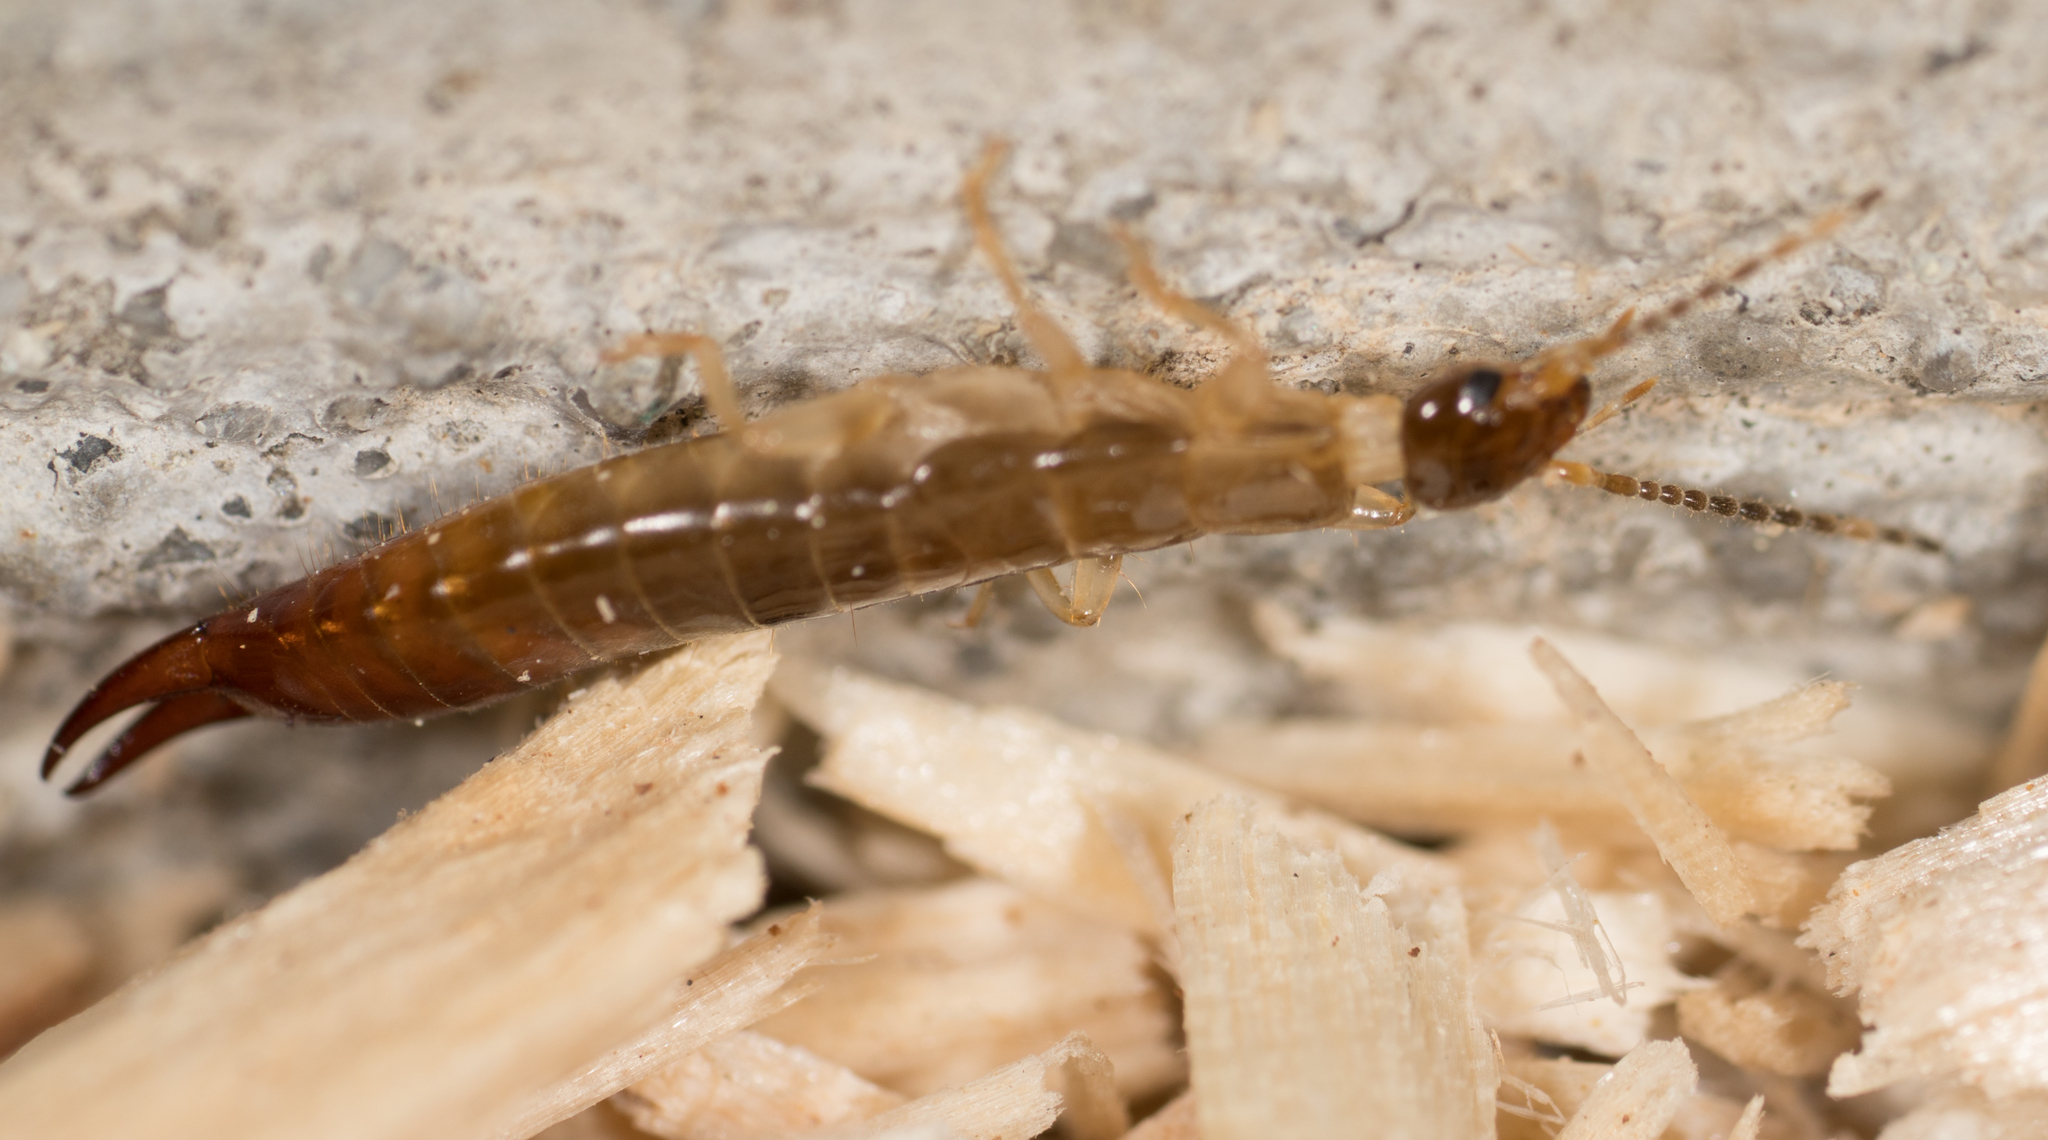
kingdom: Animalia
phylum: Arthropoda
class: Insecta
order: Dermaptera
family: Anisolabididae
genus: Euborellia
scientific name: Euborellia annulipes
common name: Ringlegged earwig
